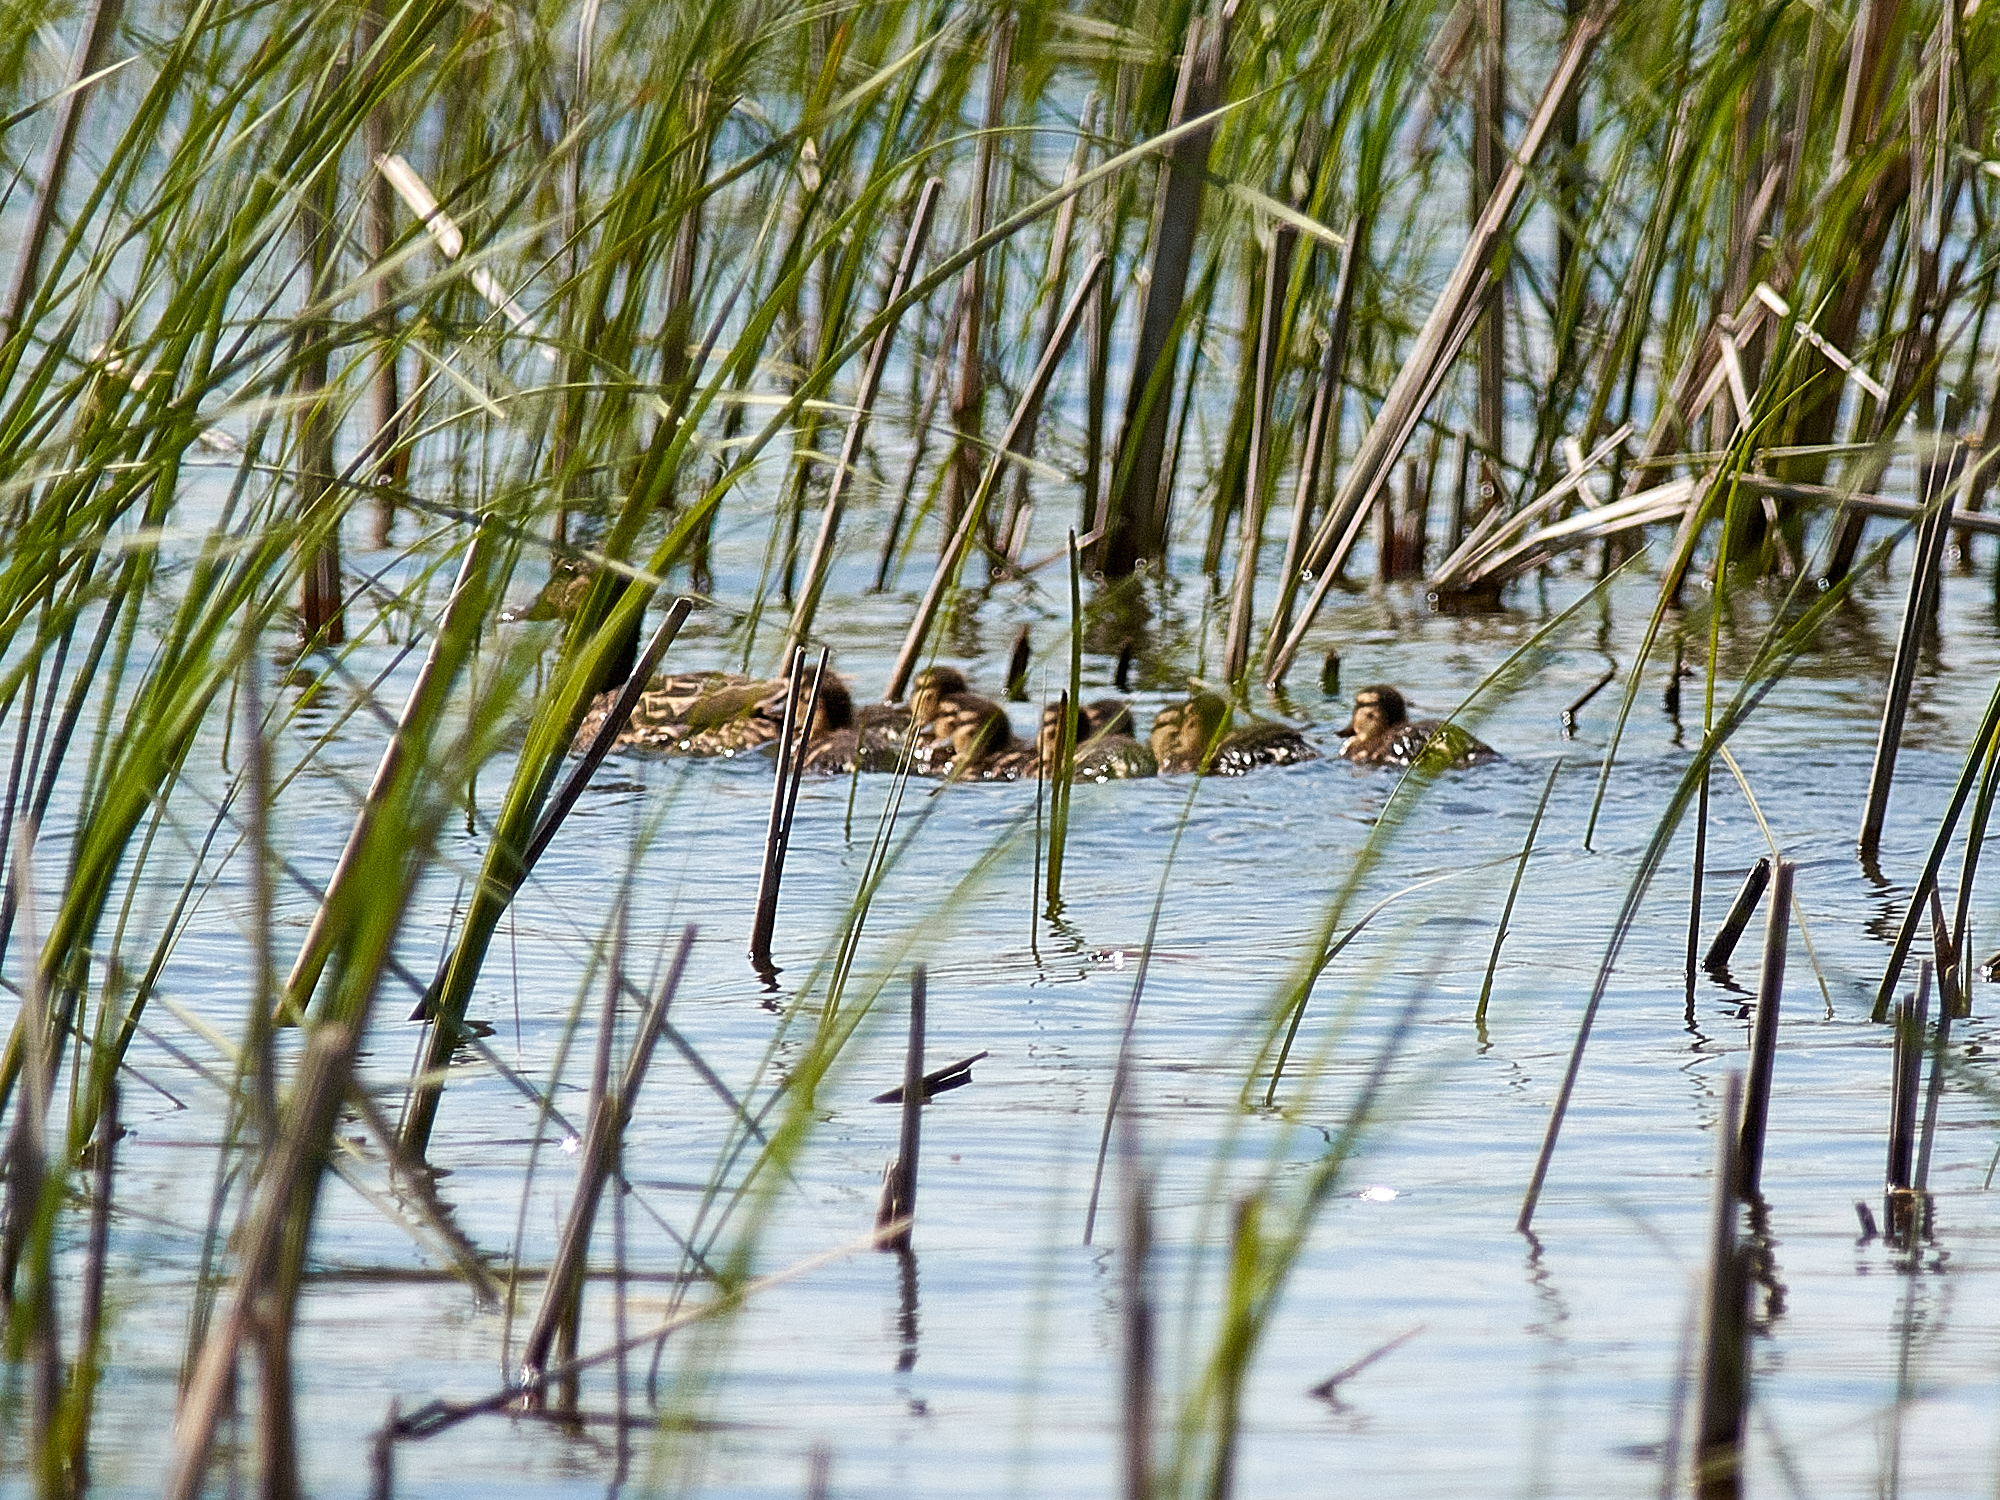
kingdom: Animalia
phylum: Chordata
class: Aves
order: Anseriformes
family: Anatidae
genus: Anas
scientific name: Anas platyrhynchos
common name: Mallard
